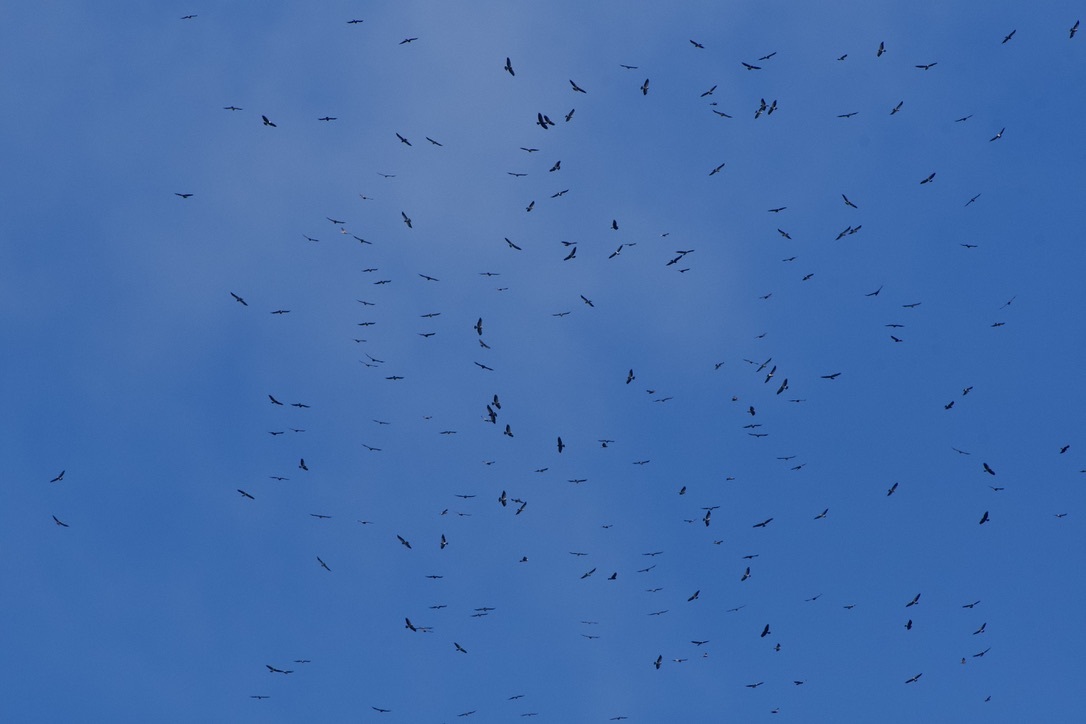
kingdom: Animalia
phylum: Chordata
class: Aves
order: Accipitriformes
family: Accipitridae
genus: Buteo
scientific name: Buteo brachyurus
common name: Short-tailed hawk
